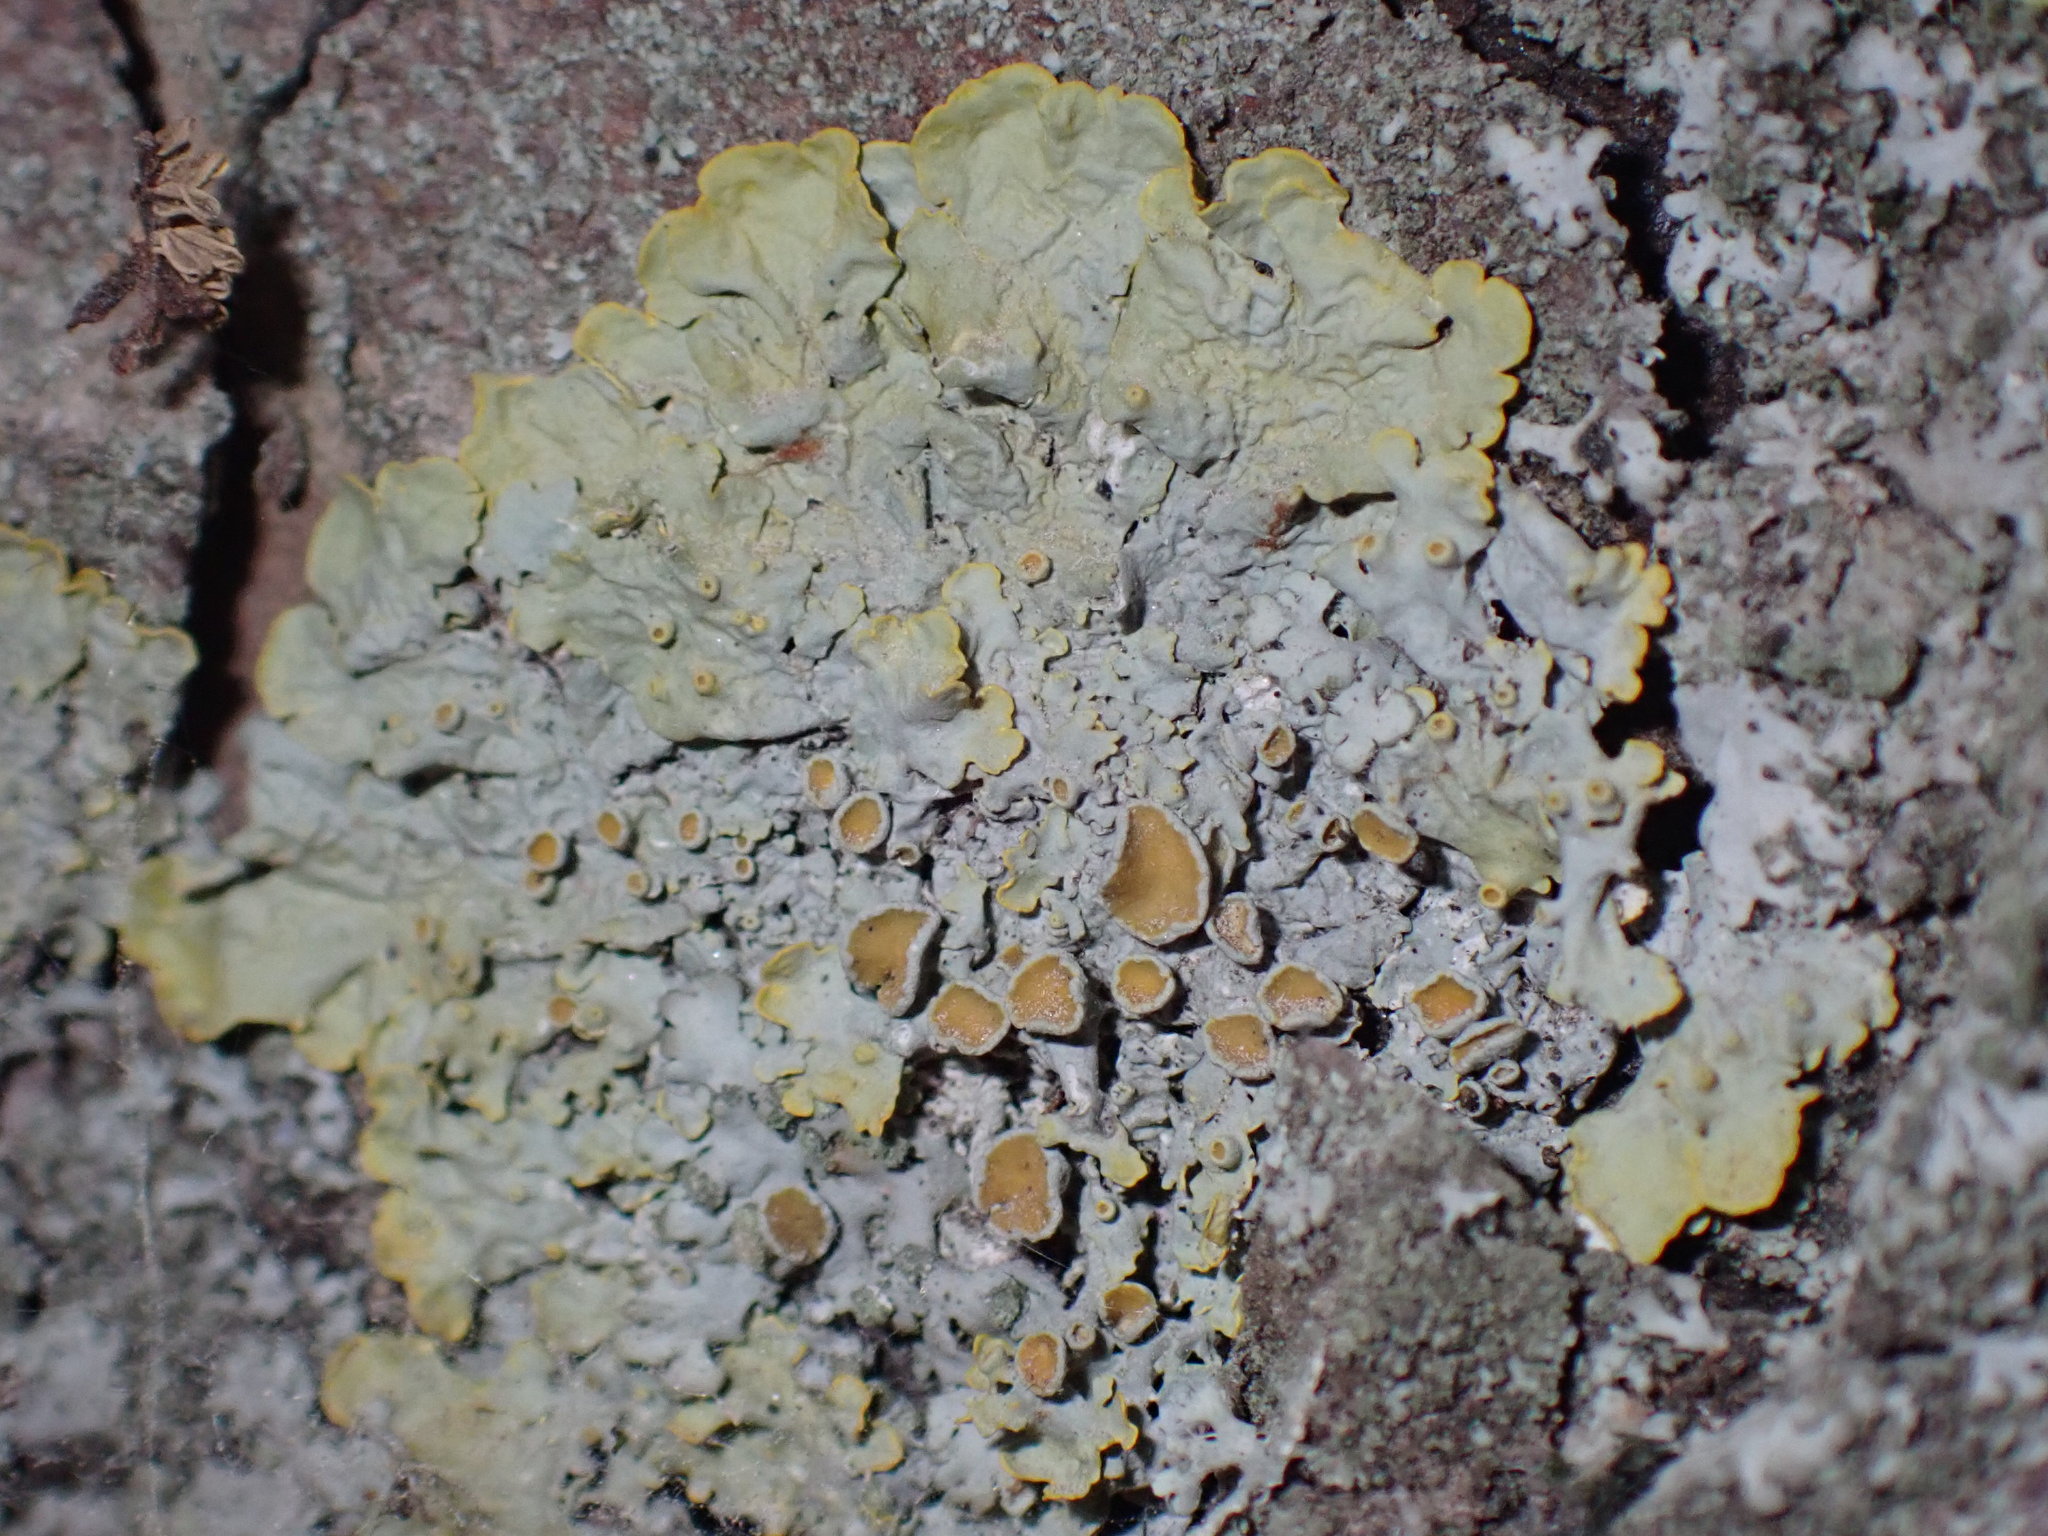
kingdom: Fungi
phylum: Ascomycota
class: Lecanoromycetes
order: Teloschistales
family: Teloschistaceae
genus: Xanthoria
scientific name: Xanthoria parietina
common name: Common orange lichen
